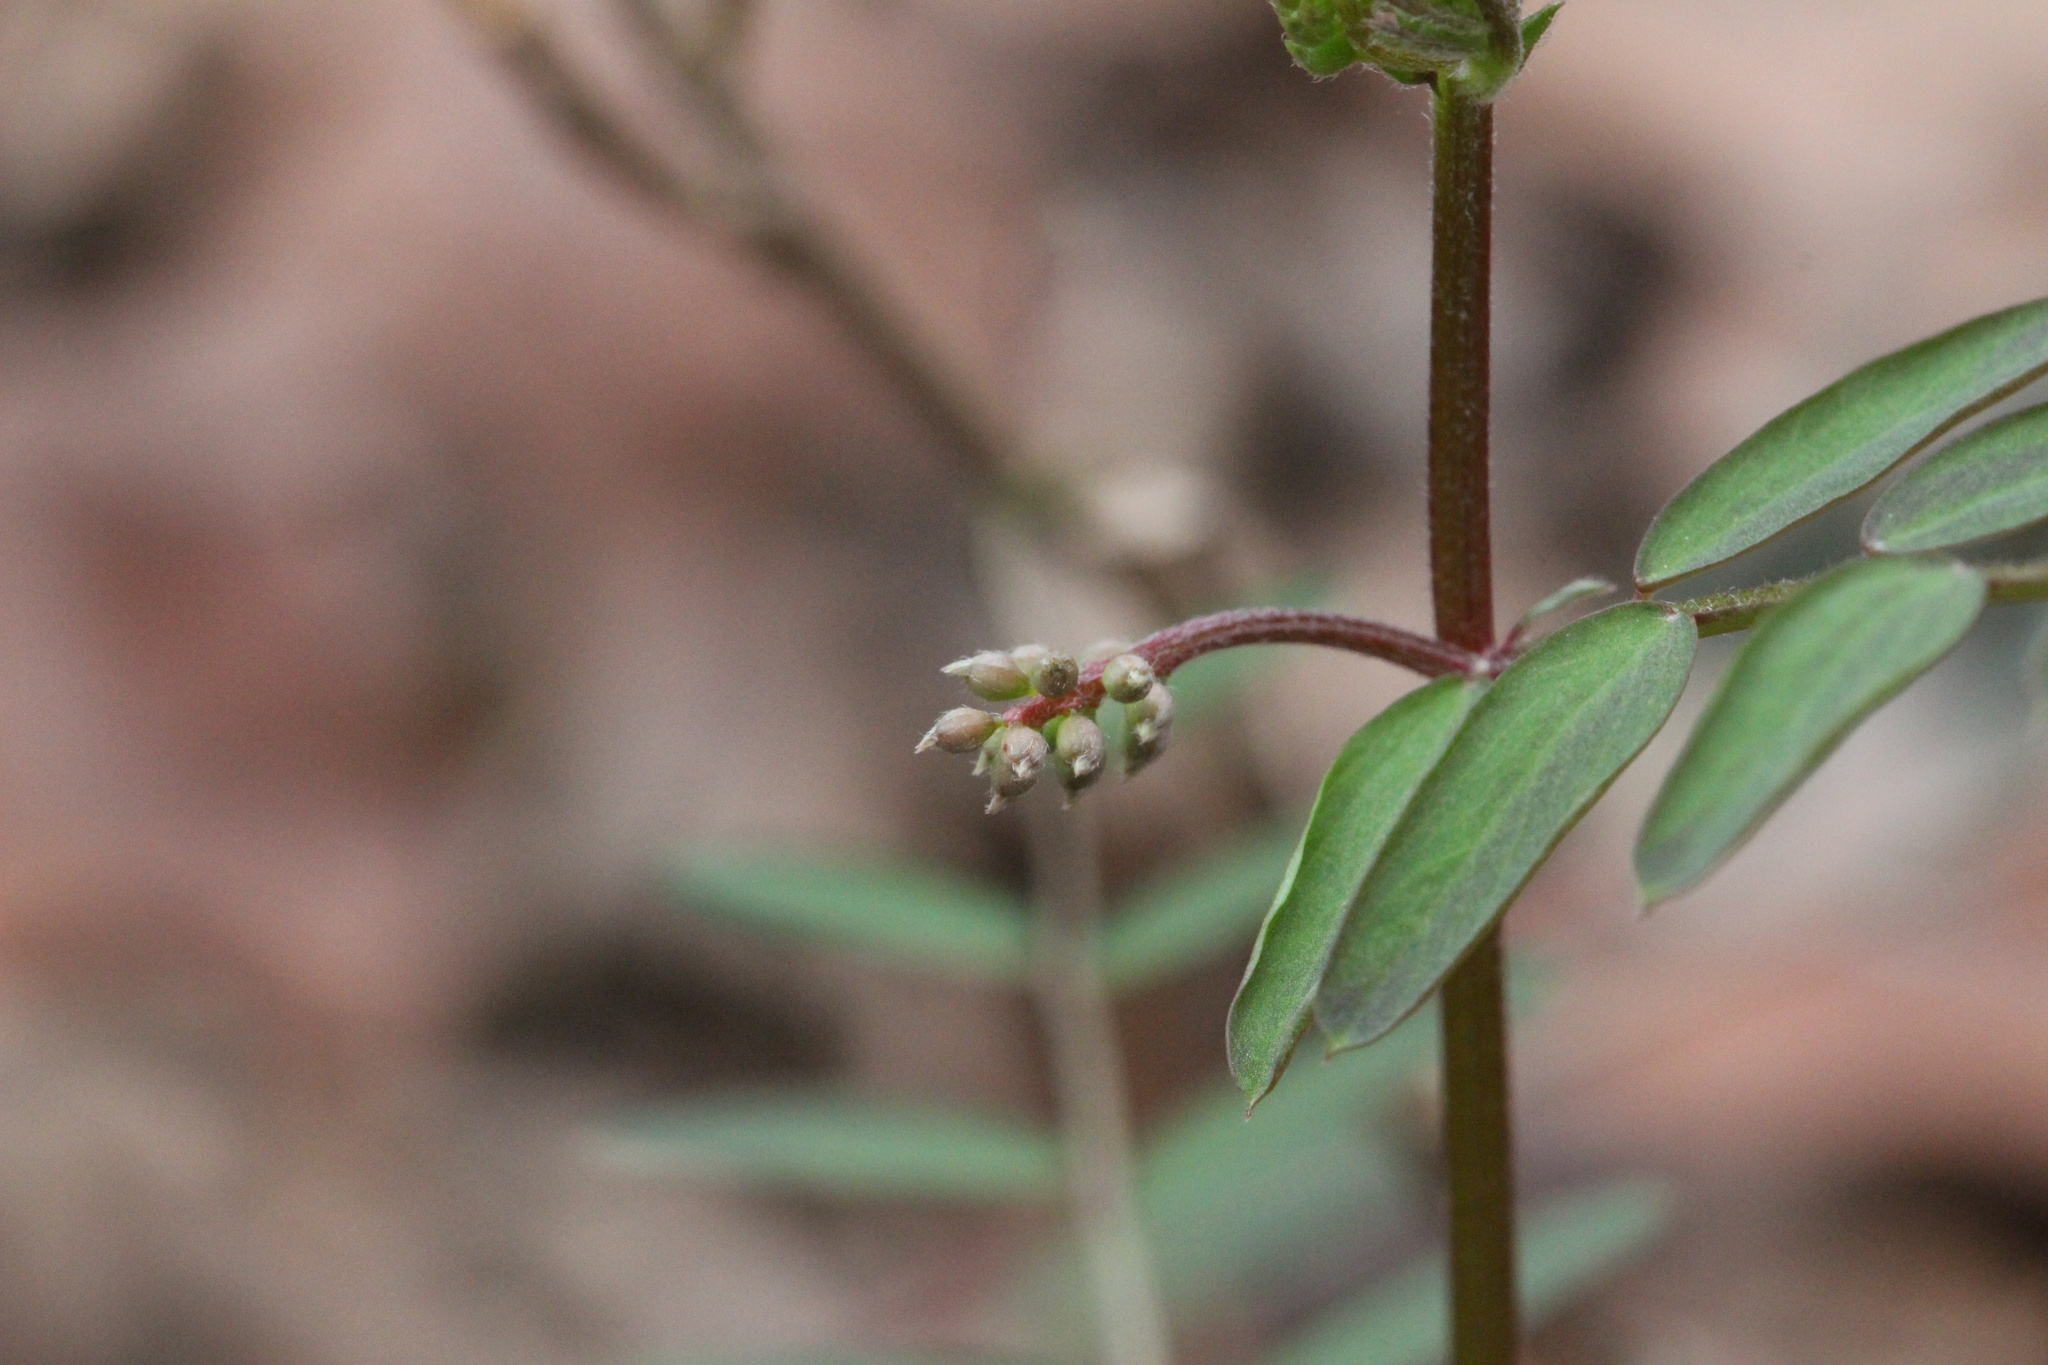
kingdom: Plantae
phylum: Tracheophyta
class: Magnoliopsida
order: Fabales
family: Fabaceae
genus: Vicia
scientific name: Vicia caroliniana
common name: Carolina vetch
